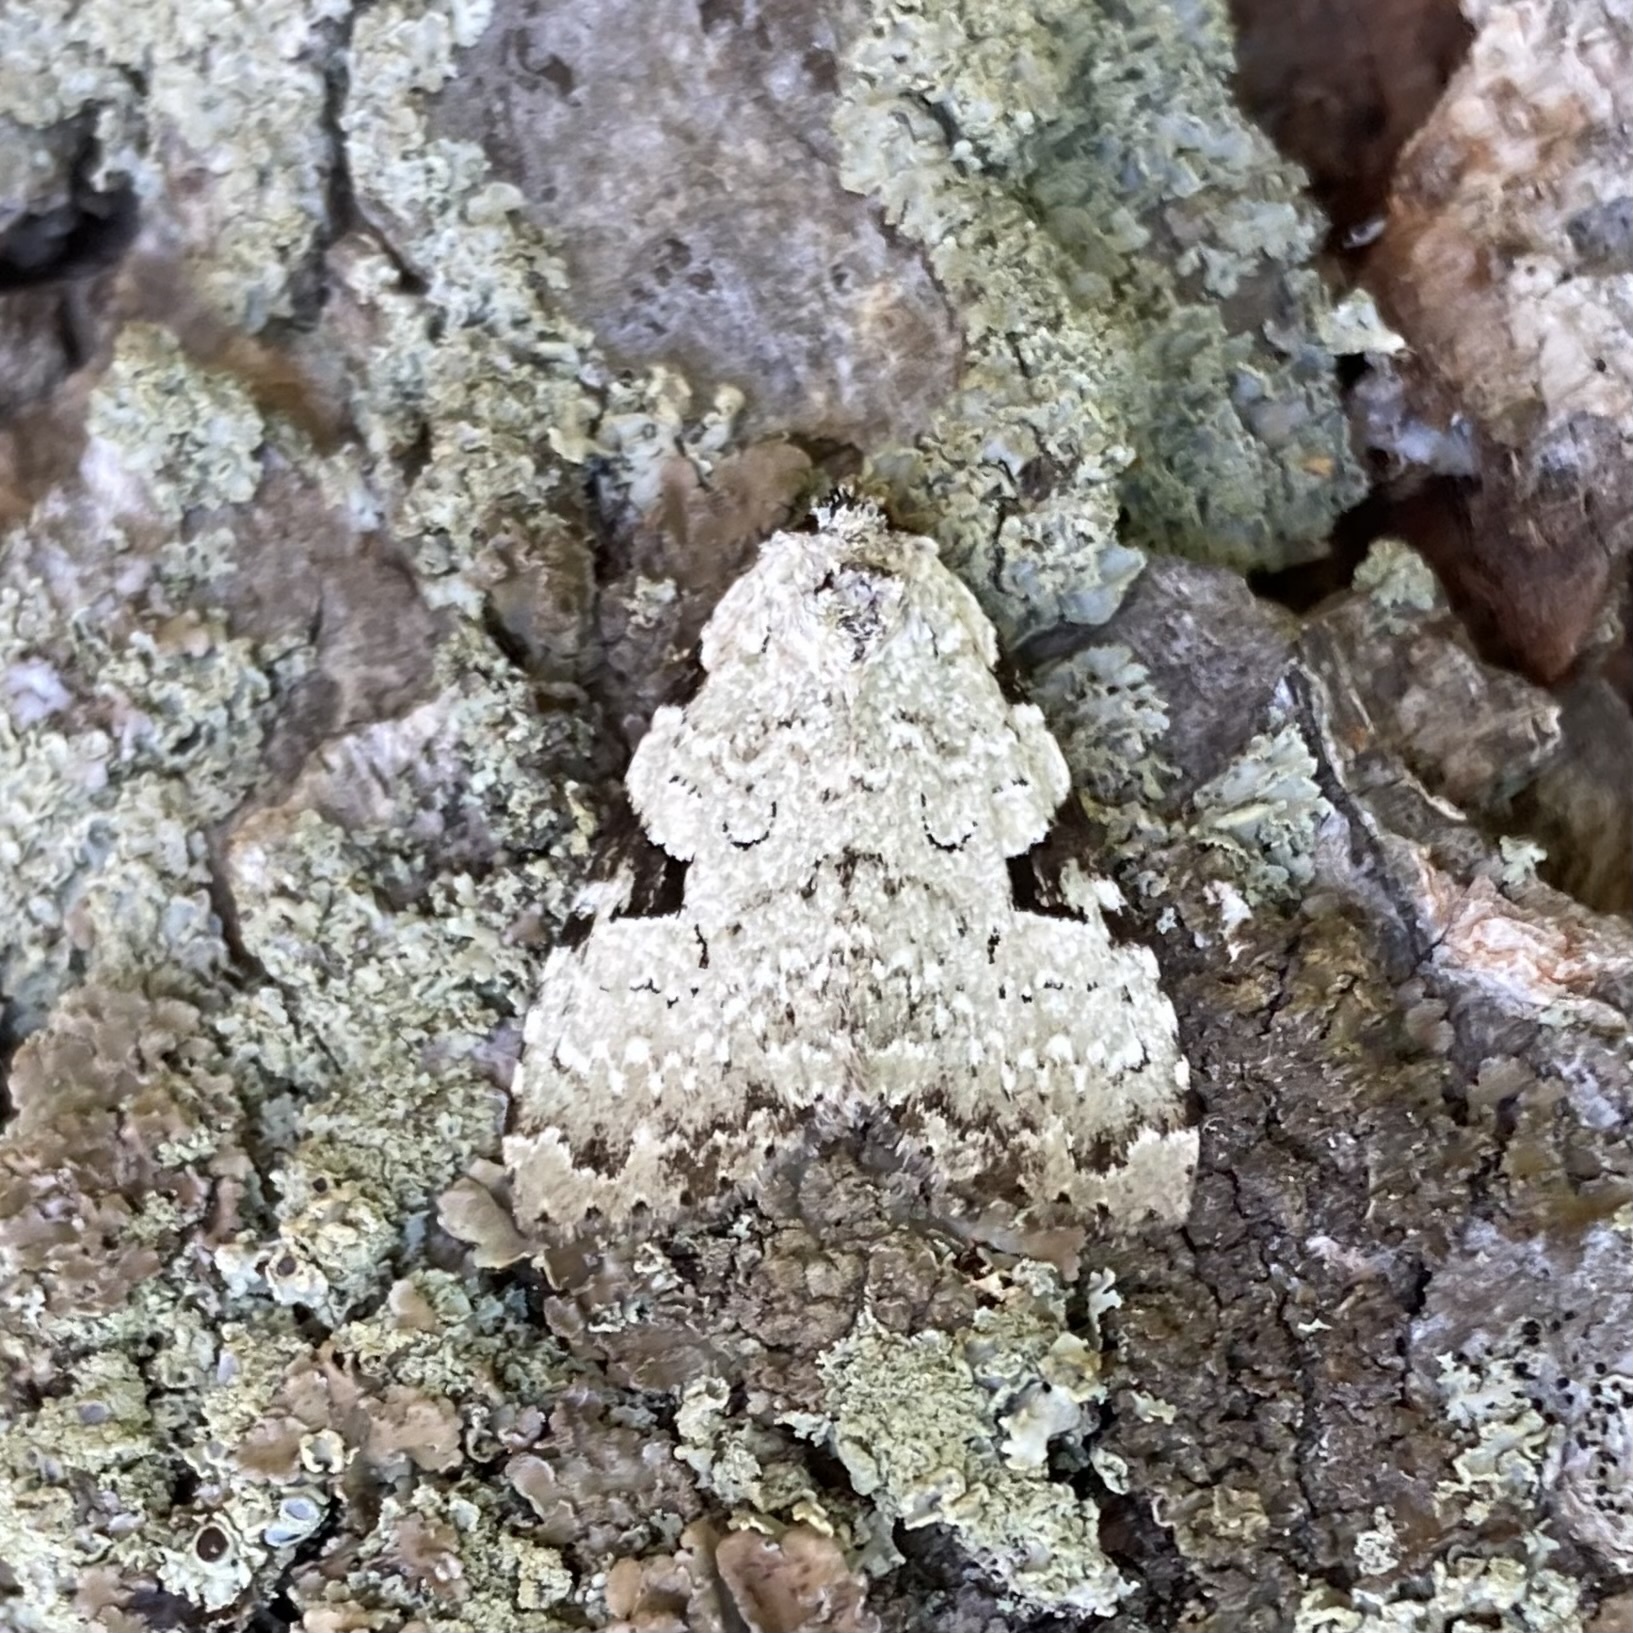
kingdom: Animalia
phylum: Arthropoda
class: Insecta
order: Lepidoptera
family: Noctuidae
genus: Leuconycta
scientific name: Leuconycta diphteroides
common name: Green leuconycta moth
